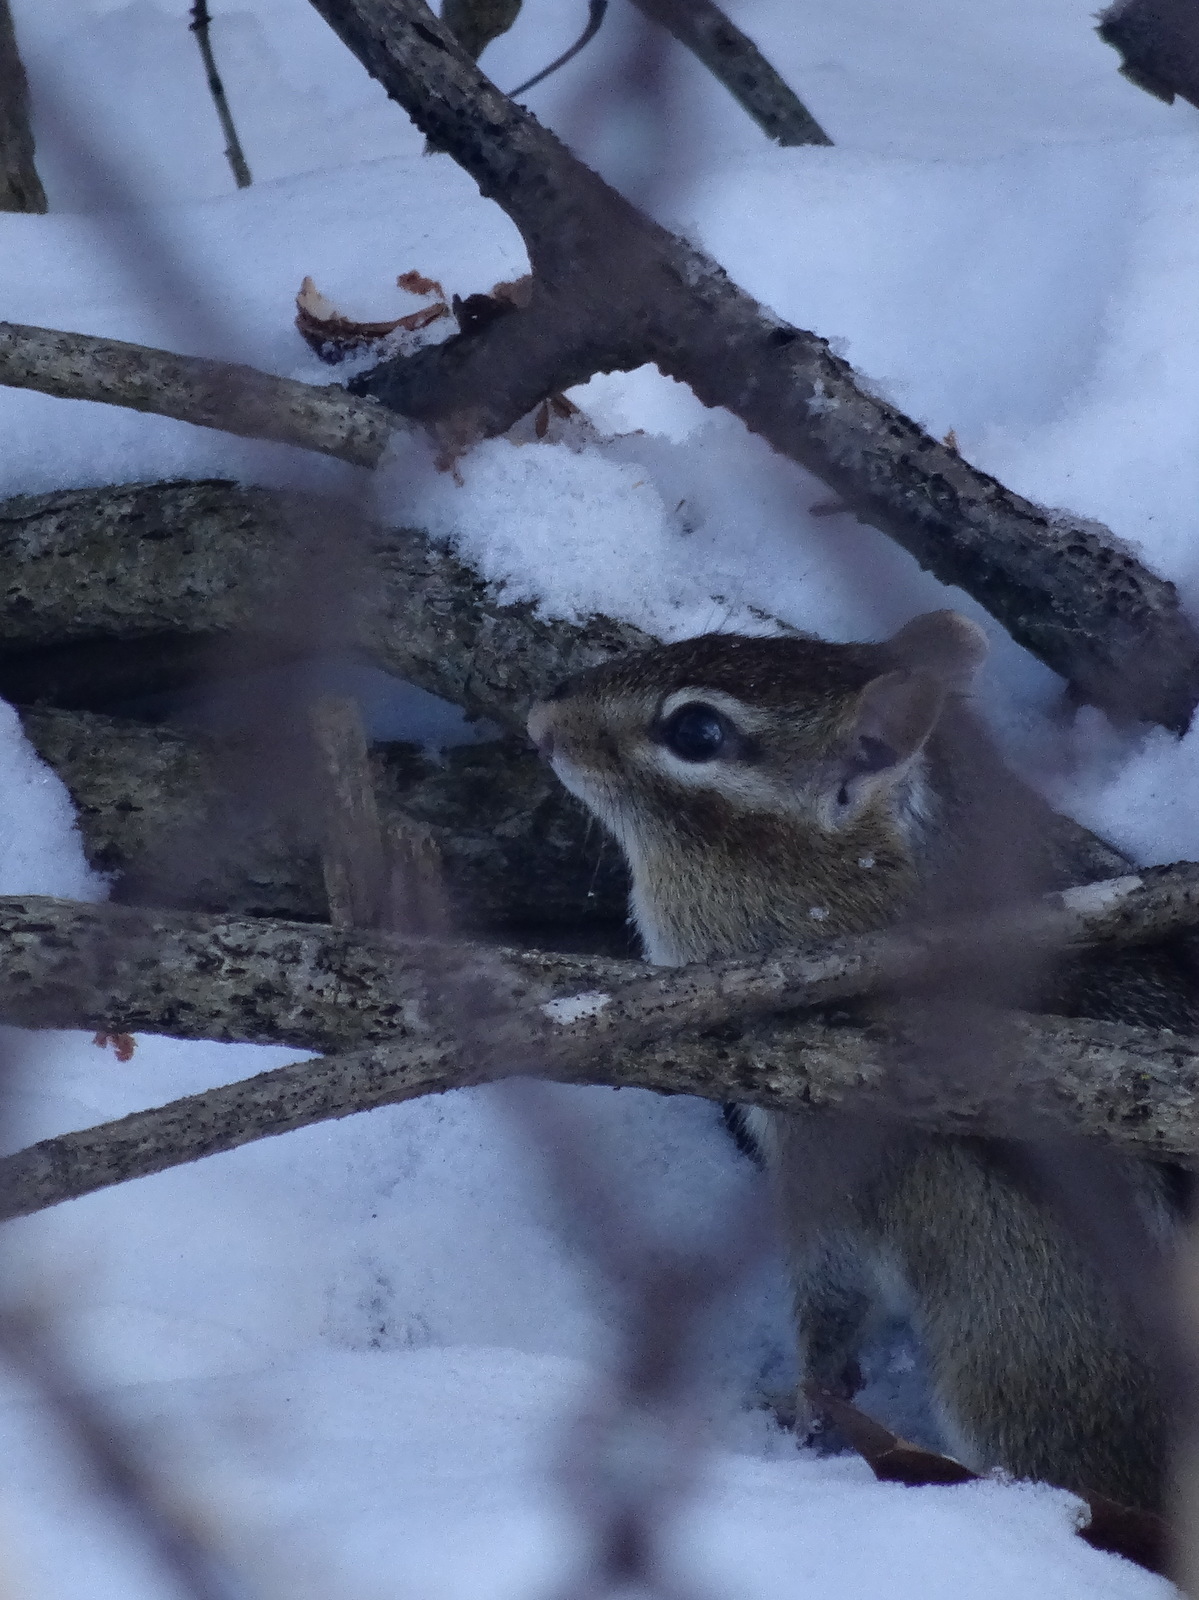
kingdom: Animalia
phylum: Chordata
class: Mammalia
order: Rodentia
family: Sciuridae
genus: Tamias
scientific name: Tamias striatus
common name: Eastern chipmunk
